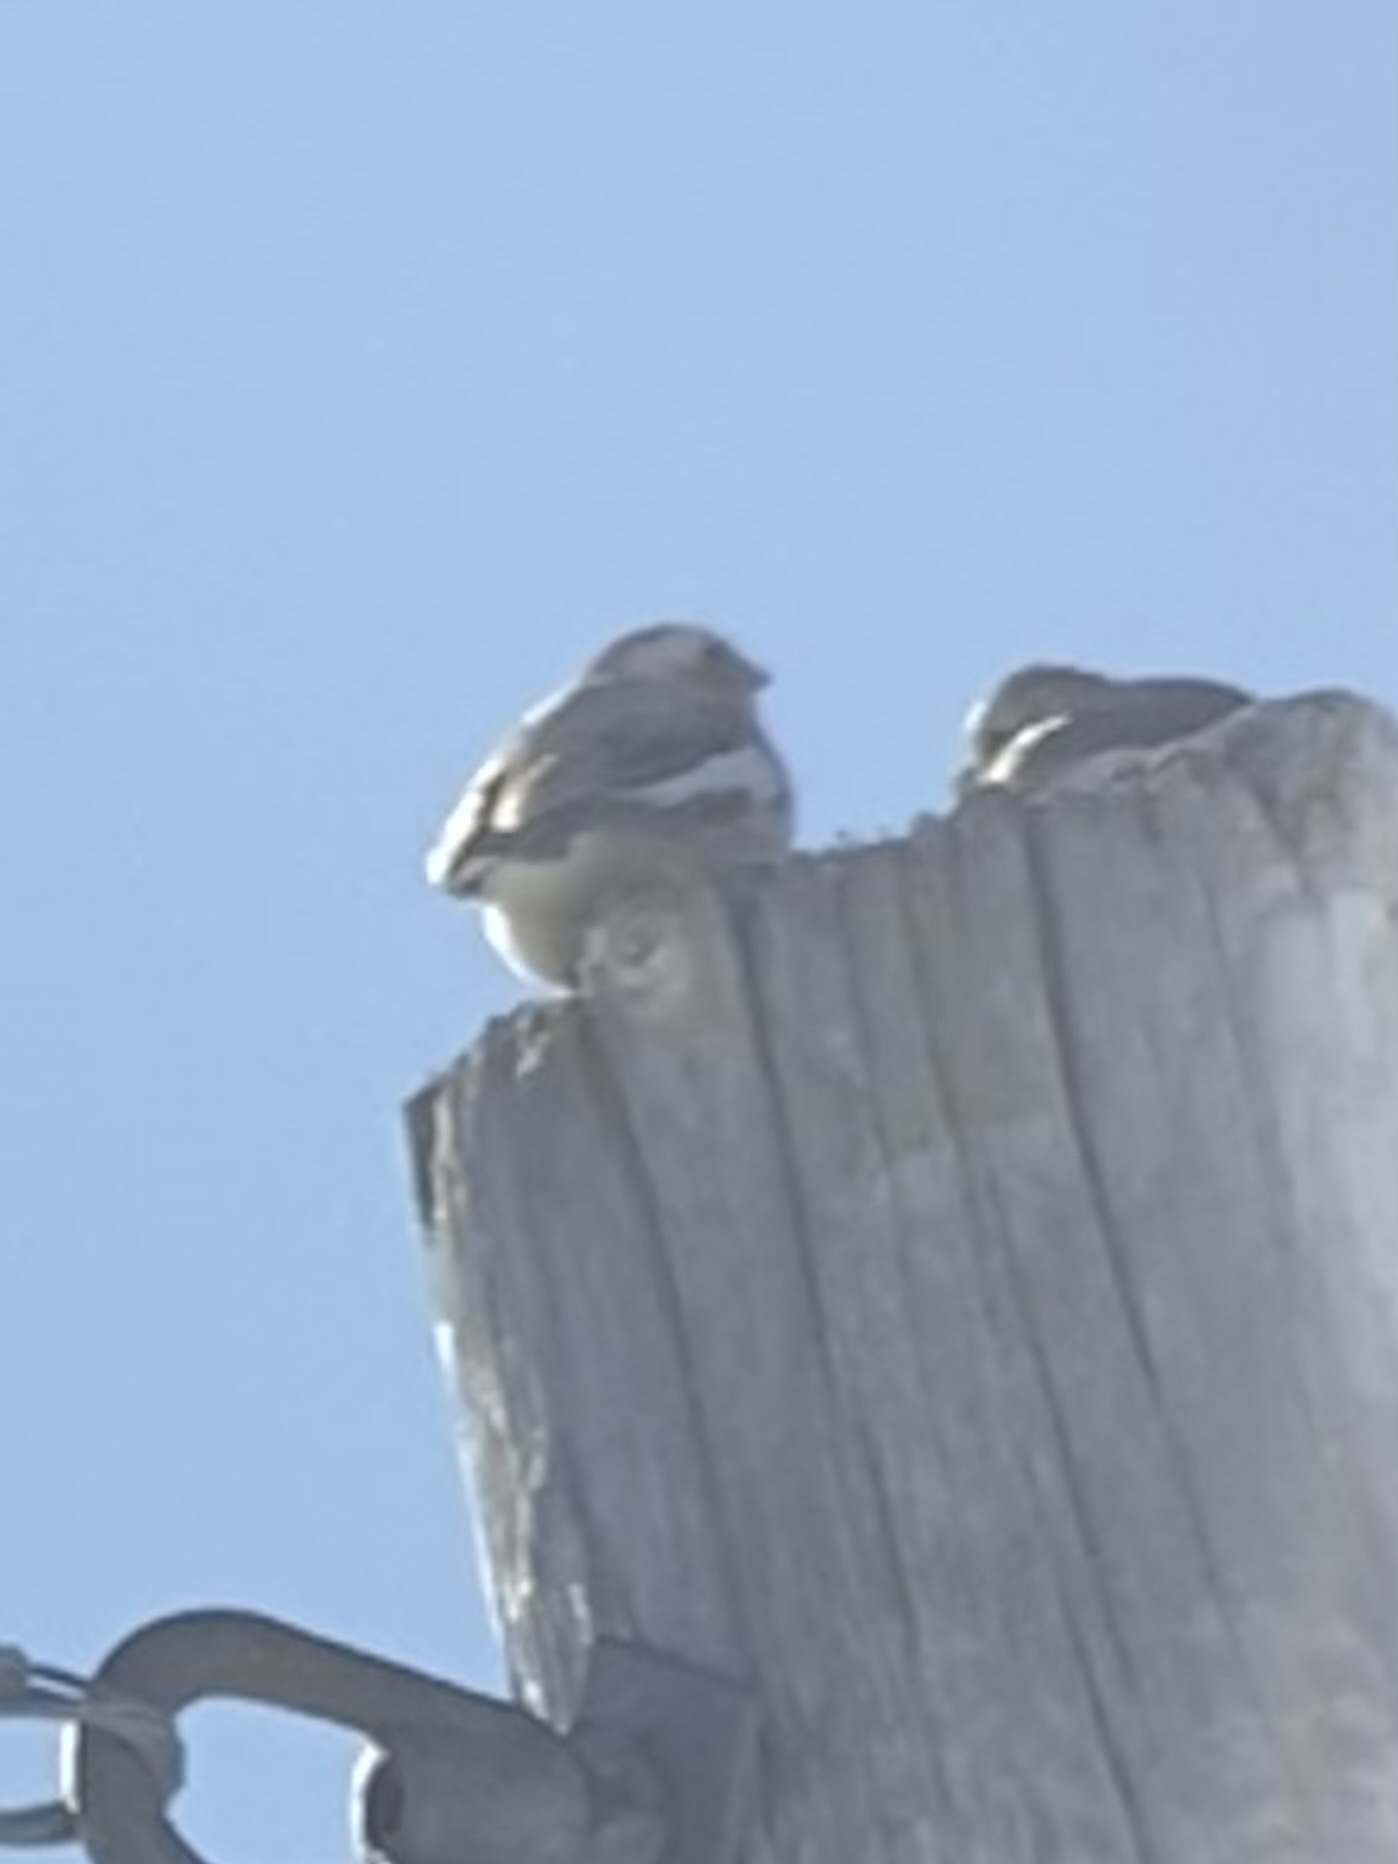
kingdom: Animalia
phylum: Chordata
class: Aves
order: Passeriformes
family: Calcariidae
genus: Plectrophenax
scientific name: Plectrophenax nivalis
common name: Snow bunting
